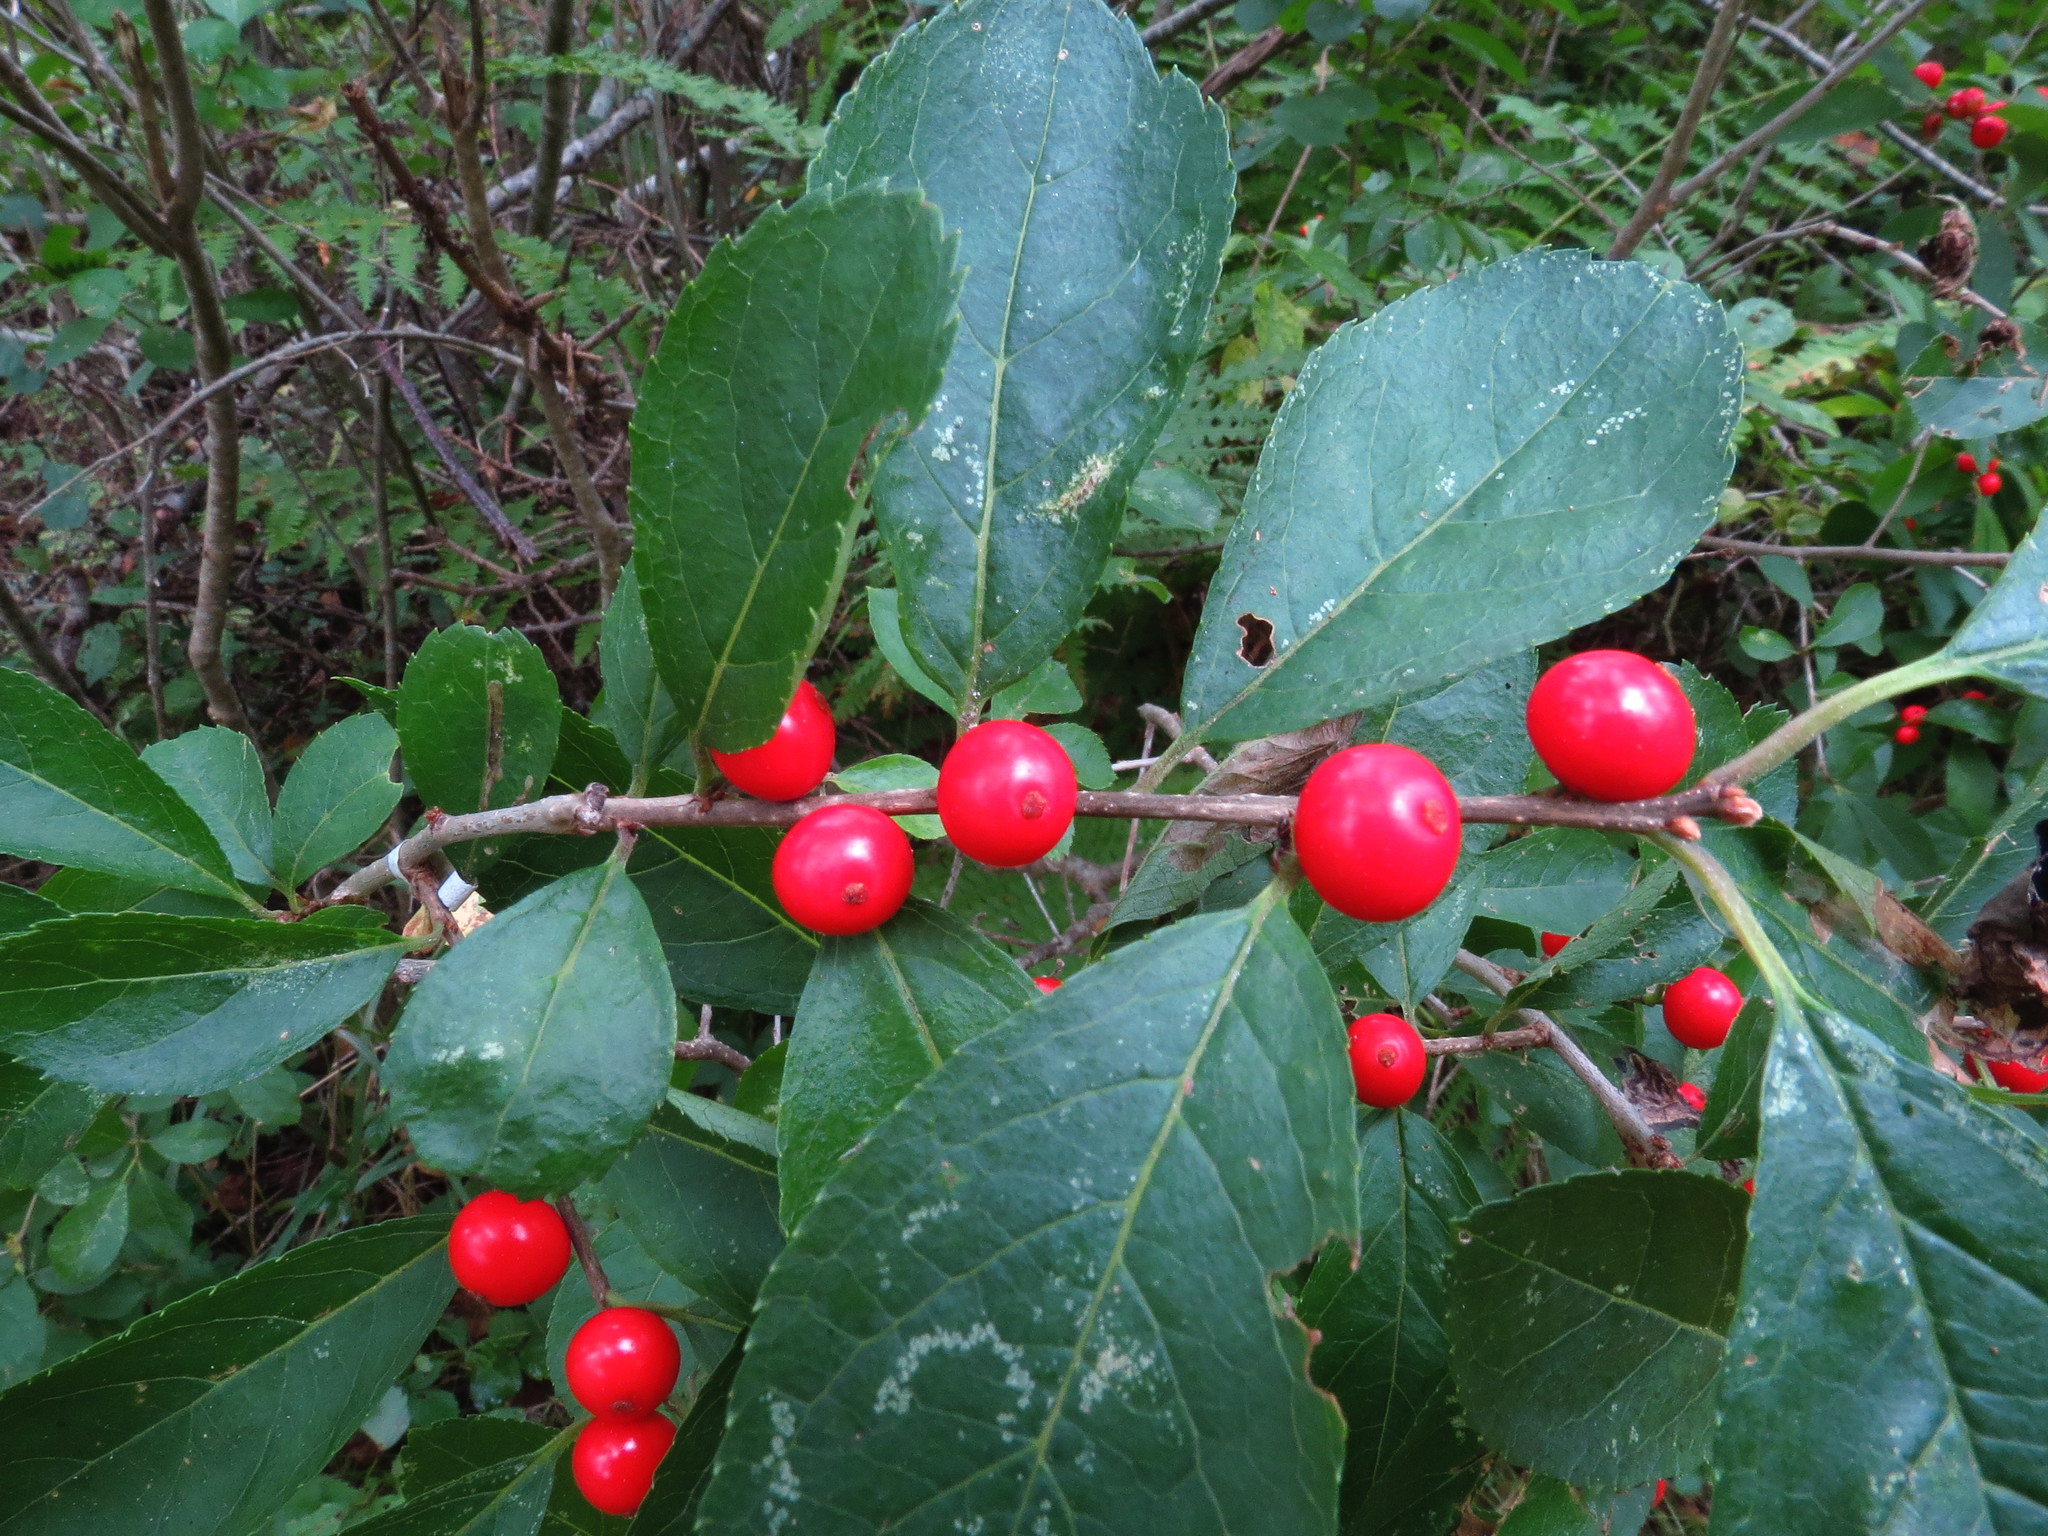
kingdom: Plantae
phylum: Tracheophyta
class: Magnoliopsida
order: Aquifoliales
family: Aquifoliaceae
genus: Ilex
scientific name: Ilex verticillata
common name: Virginia winterberry
